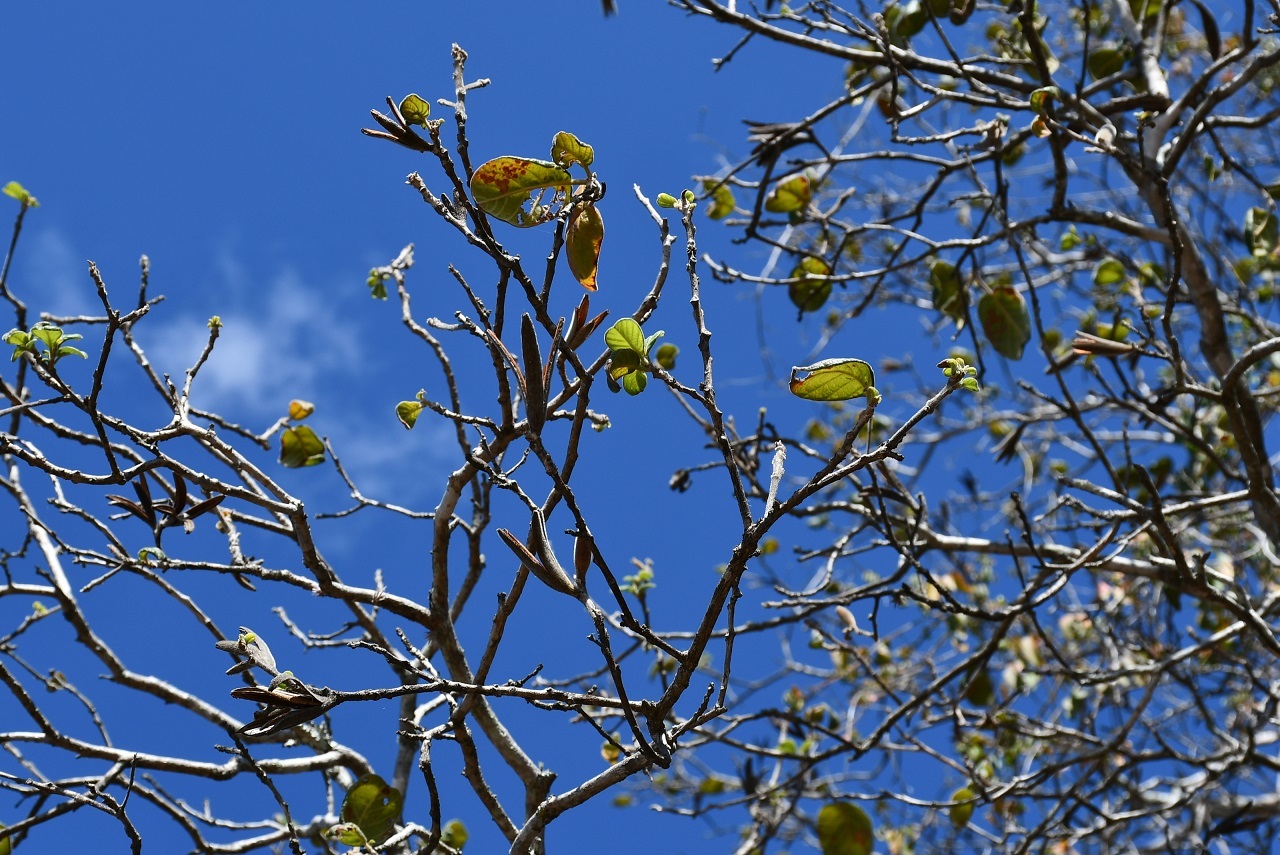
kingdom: Plantae
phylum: Tracheophyta
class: Magnoliopsida
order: Myrtales
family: Onagraceae
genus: Hauya
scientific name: Hauya elegans
